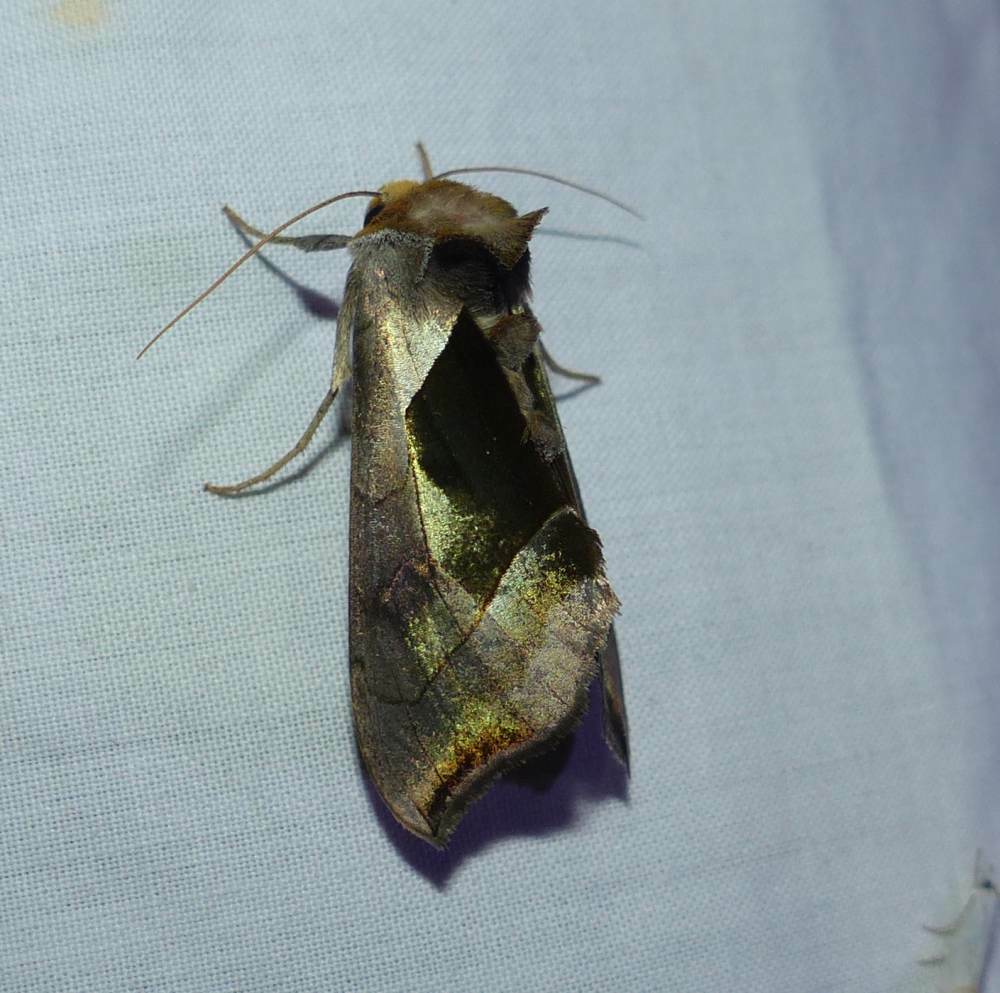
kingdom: Animalia
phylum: Arthropoda
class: Insecta
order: Lepidoptera
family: Noctuidae
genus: Diachrysia
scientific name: Diachrysia balluca
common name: Green-patched looper moth
